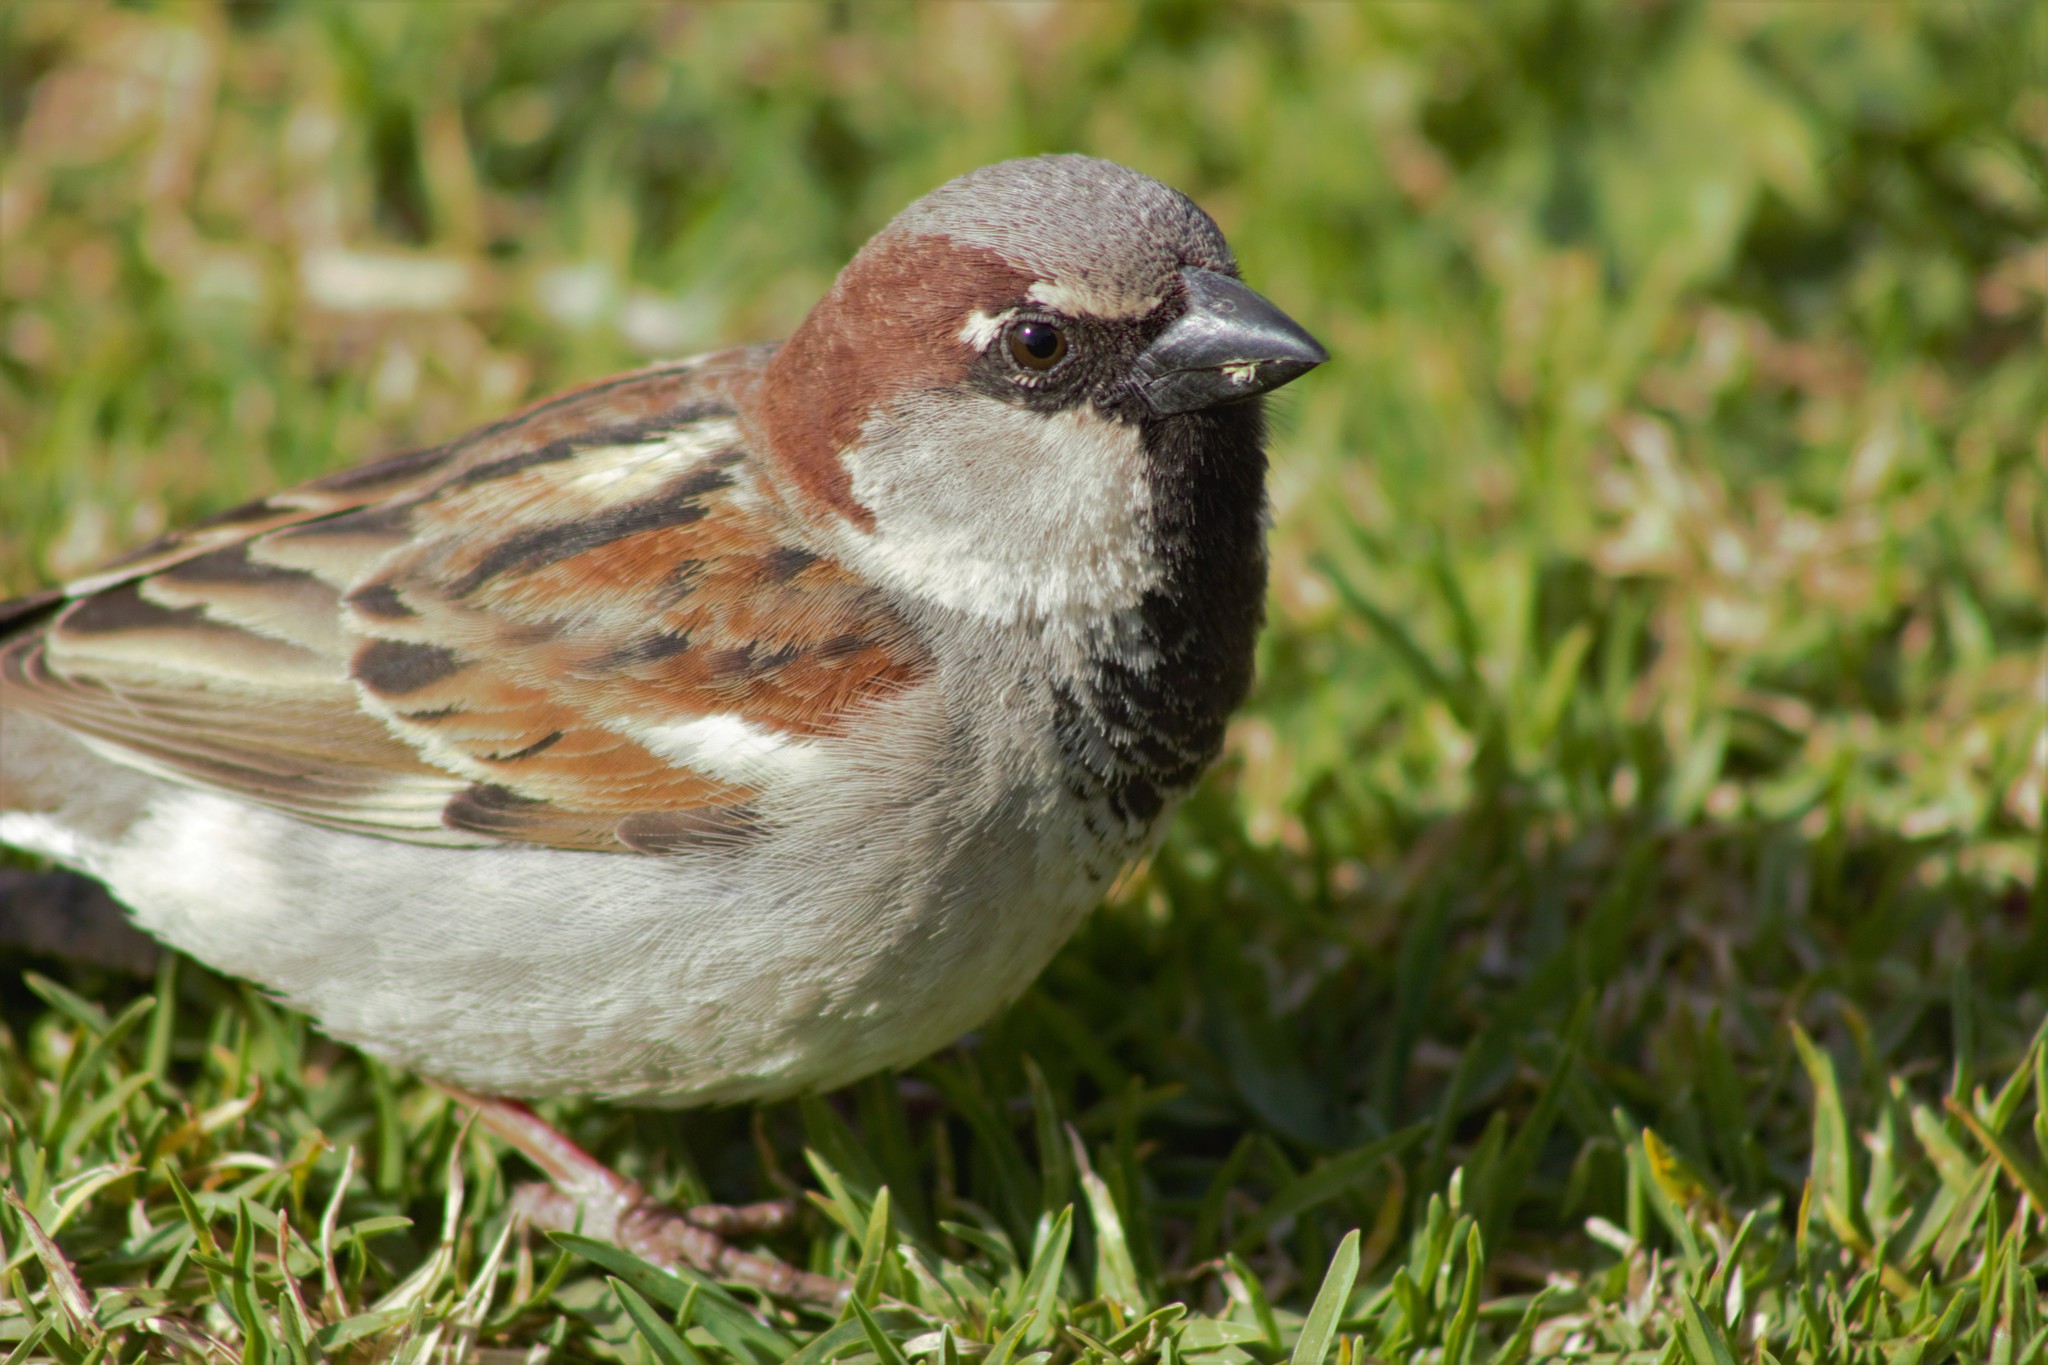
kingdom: Animalia
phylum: Chordata
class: Aves
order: Passeriformes
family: Passeridae
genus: Passer
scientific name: Passer domesticus
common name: House sparrow
